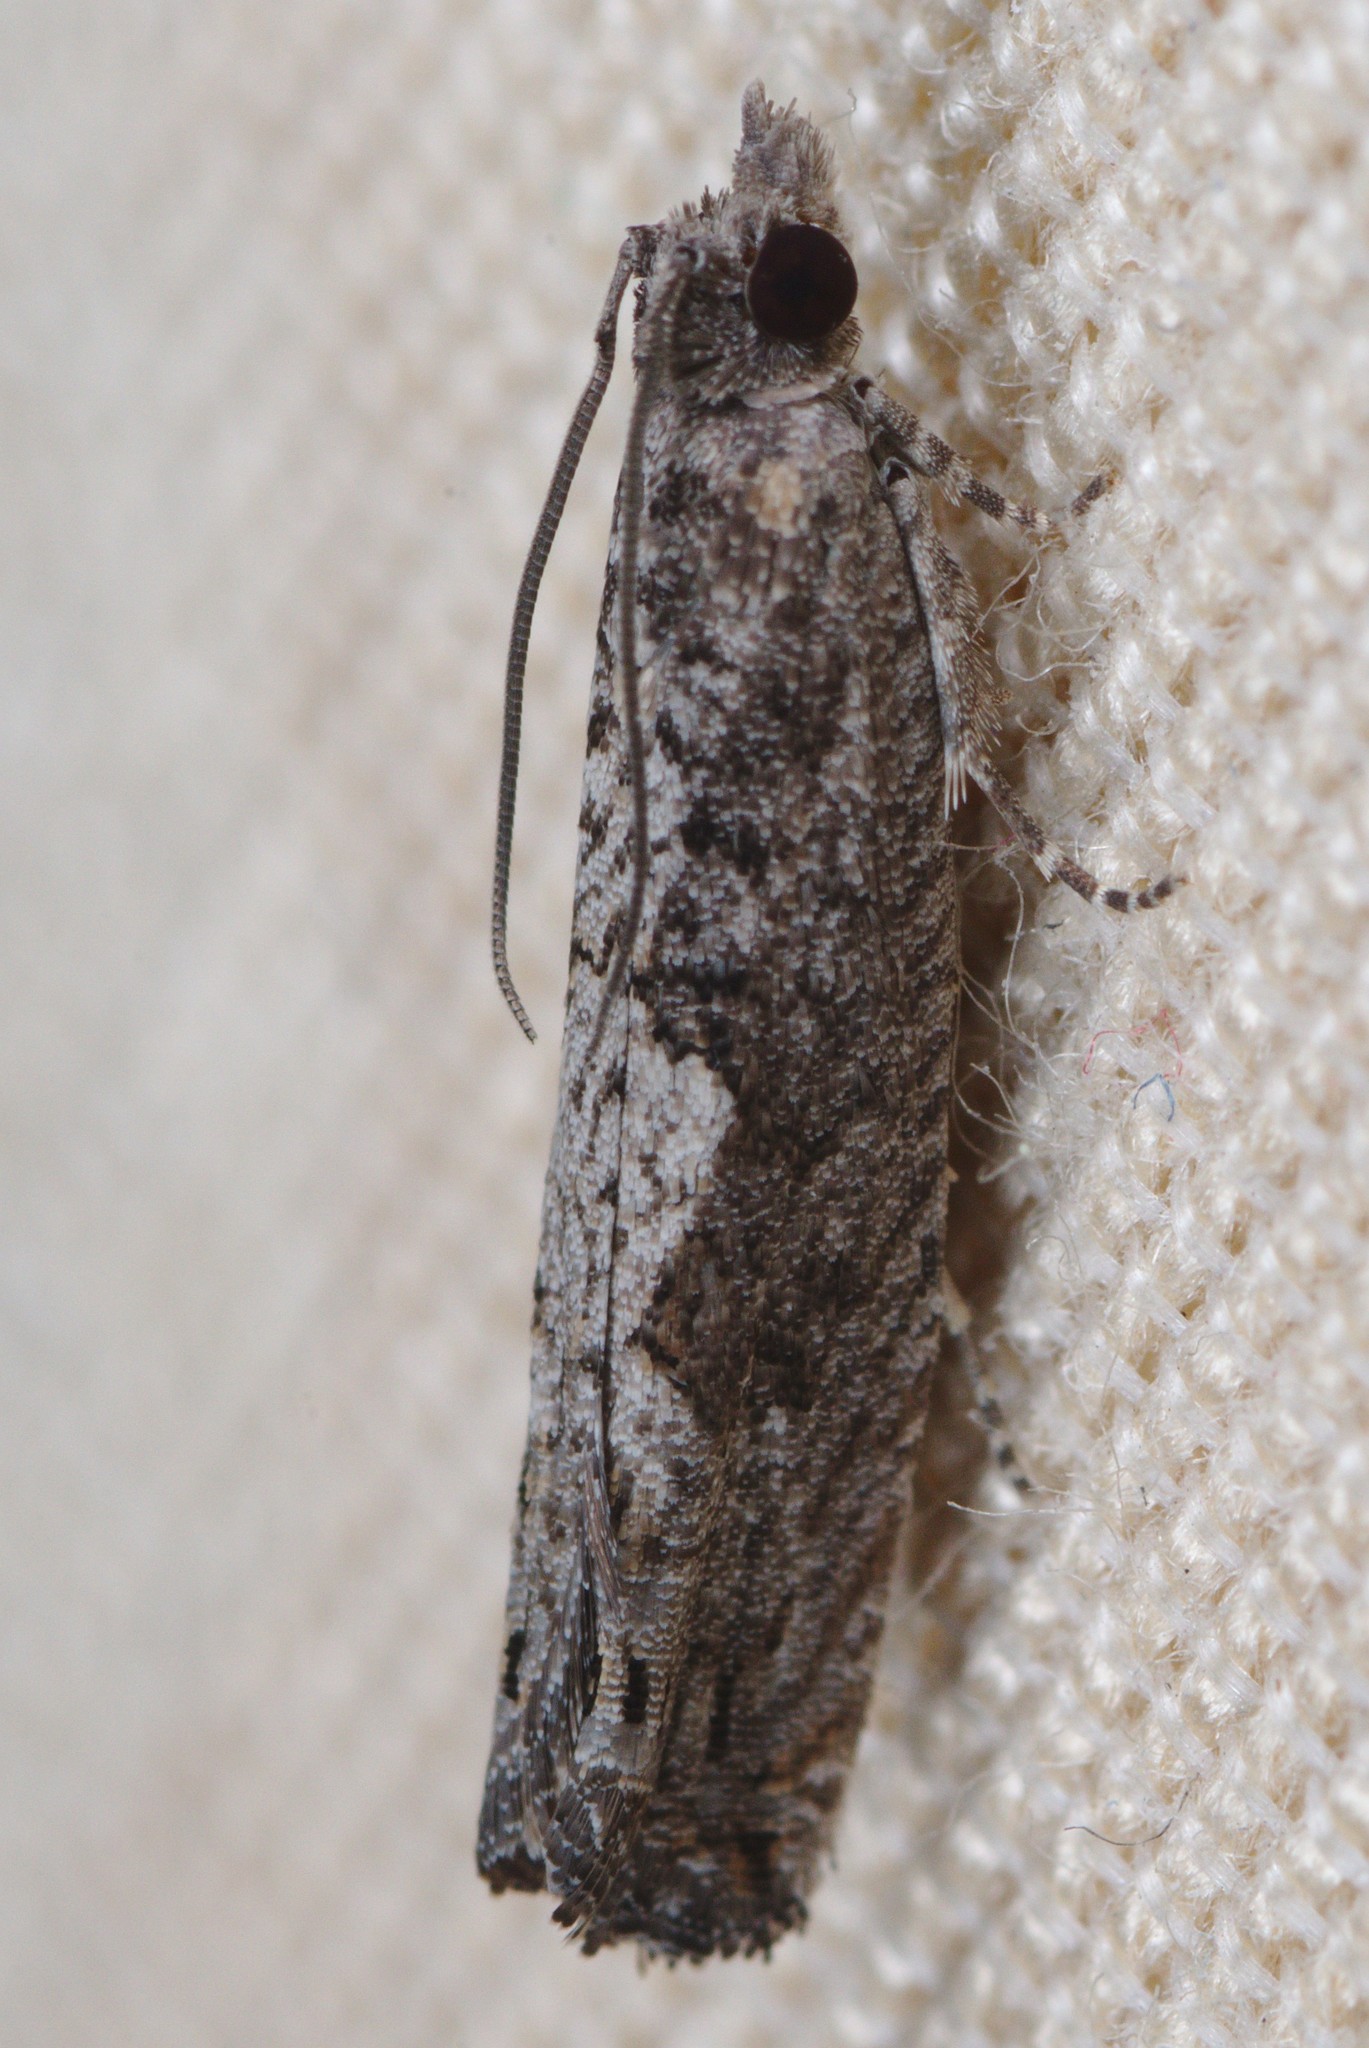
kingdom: Animalia
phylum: Arthropoda
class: Insecta
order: Lepidoptera
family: Tortricidae
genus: Strepsicrates
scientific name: Strepsicrates macropetana
